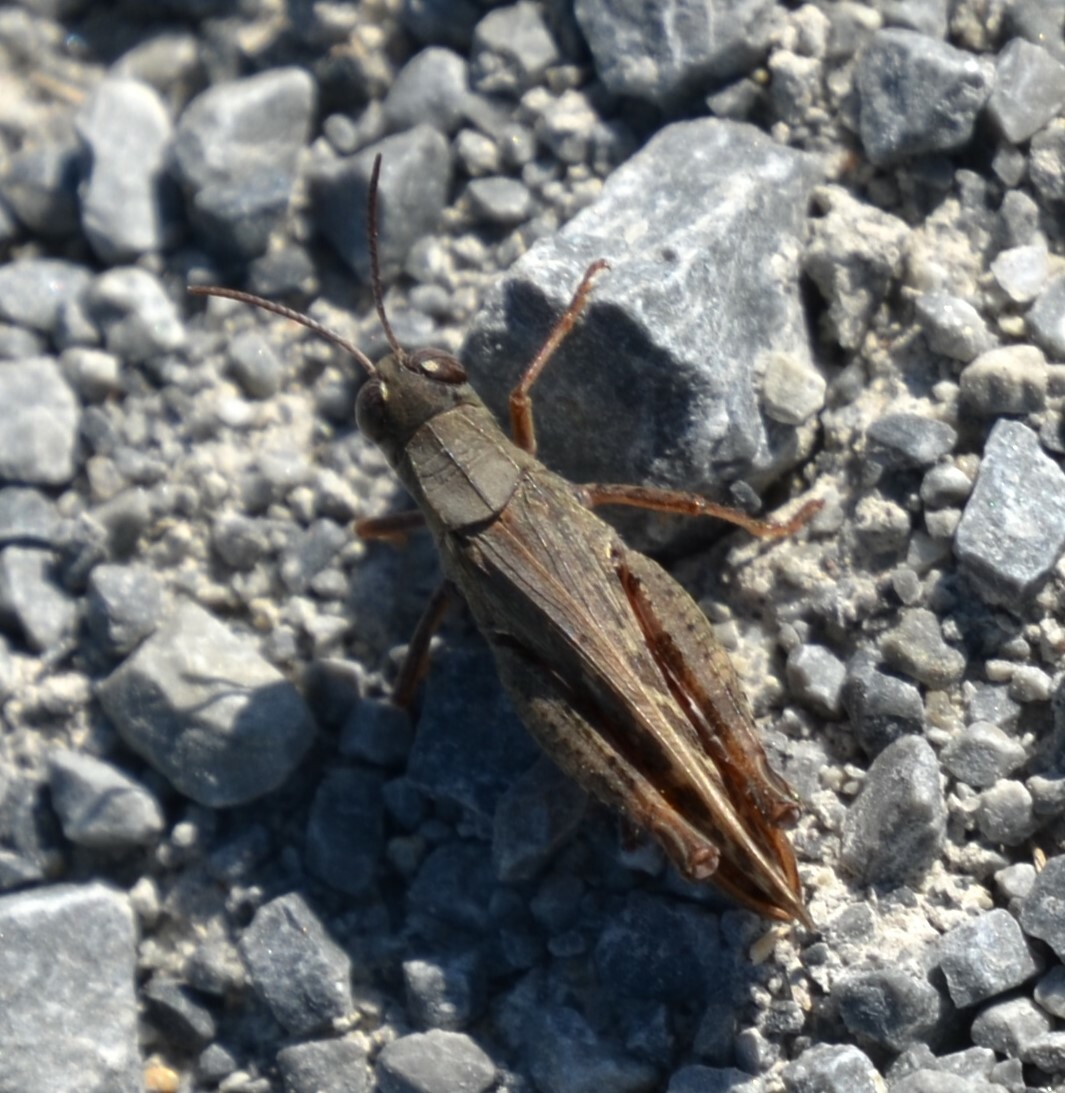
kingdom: Animalia
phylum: Arthropoda
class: Insecta
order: Orthoptera
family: Acrididae
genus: Calliptamus
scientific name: Calliptamus italicus
